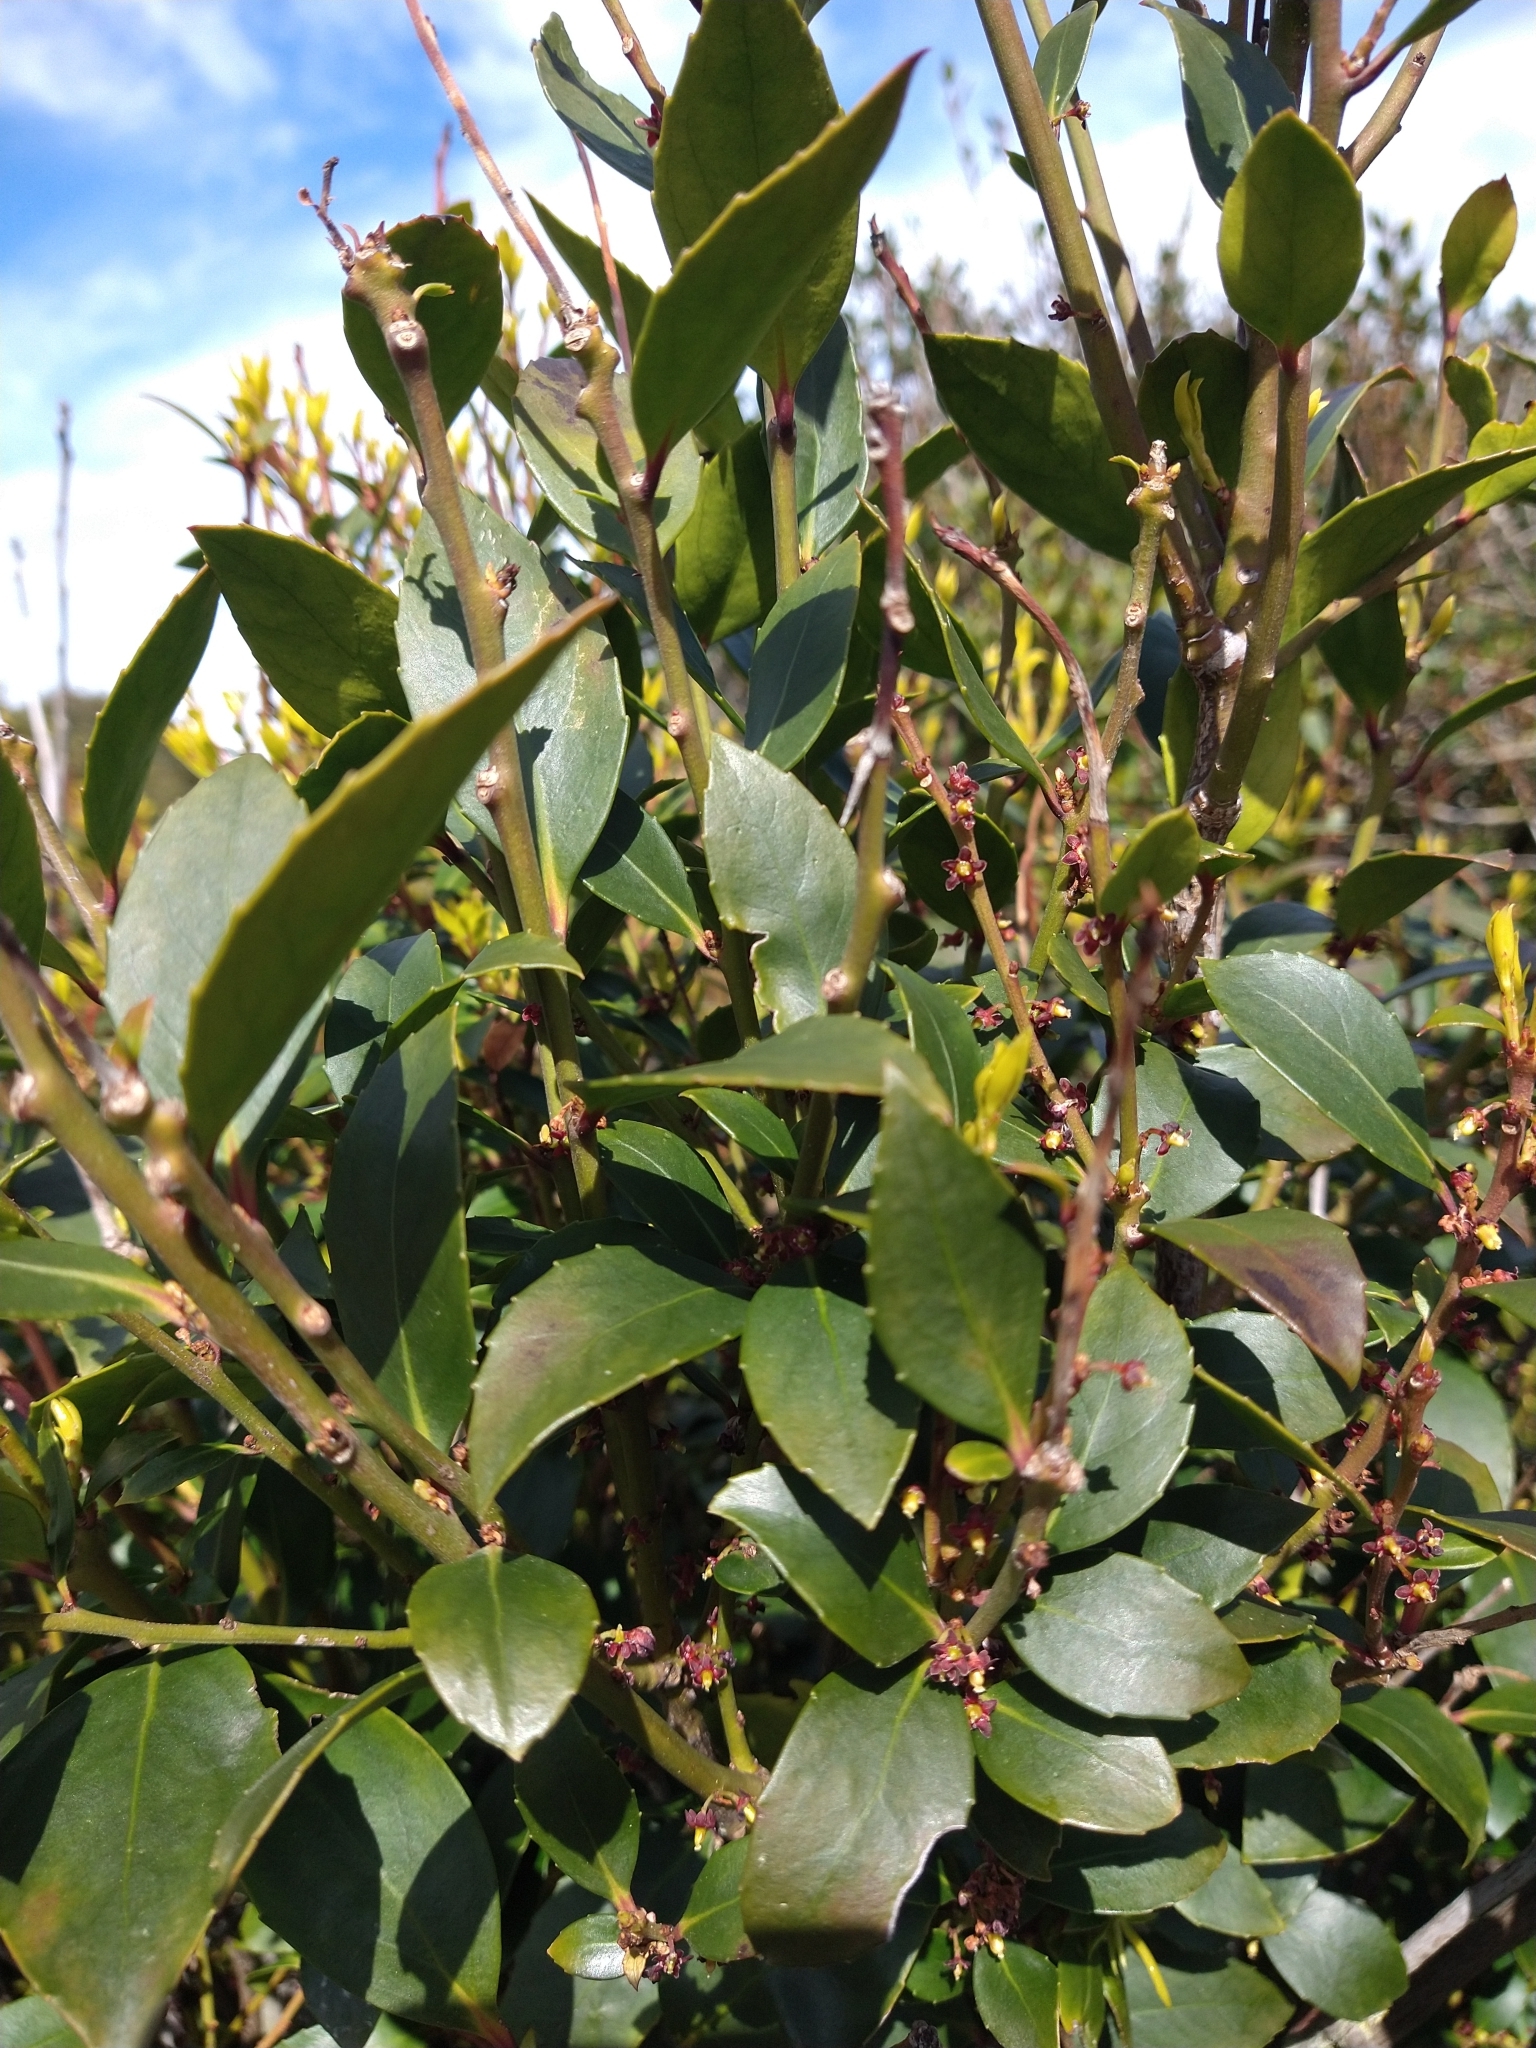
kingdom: Plantae
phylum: Tracheophyta
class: Magnoliopsida
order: Celastrales
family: Celastraceae
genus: Maytenus
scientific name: Maytenus magellanica
